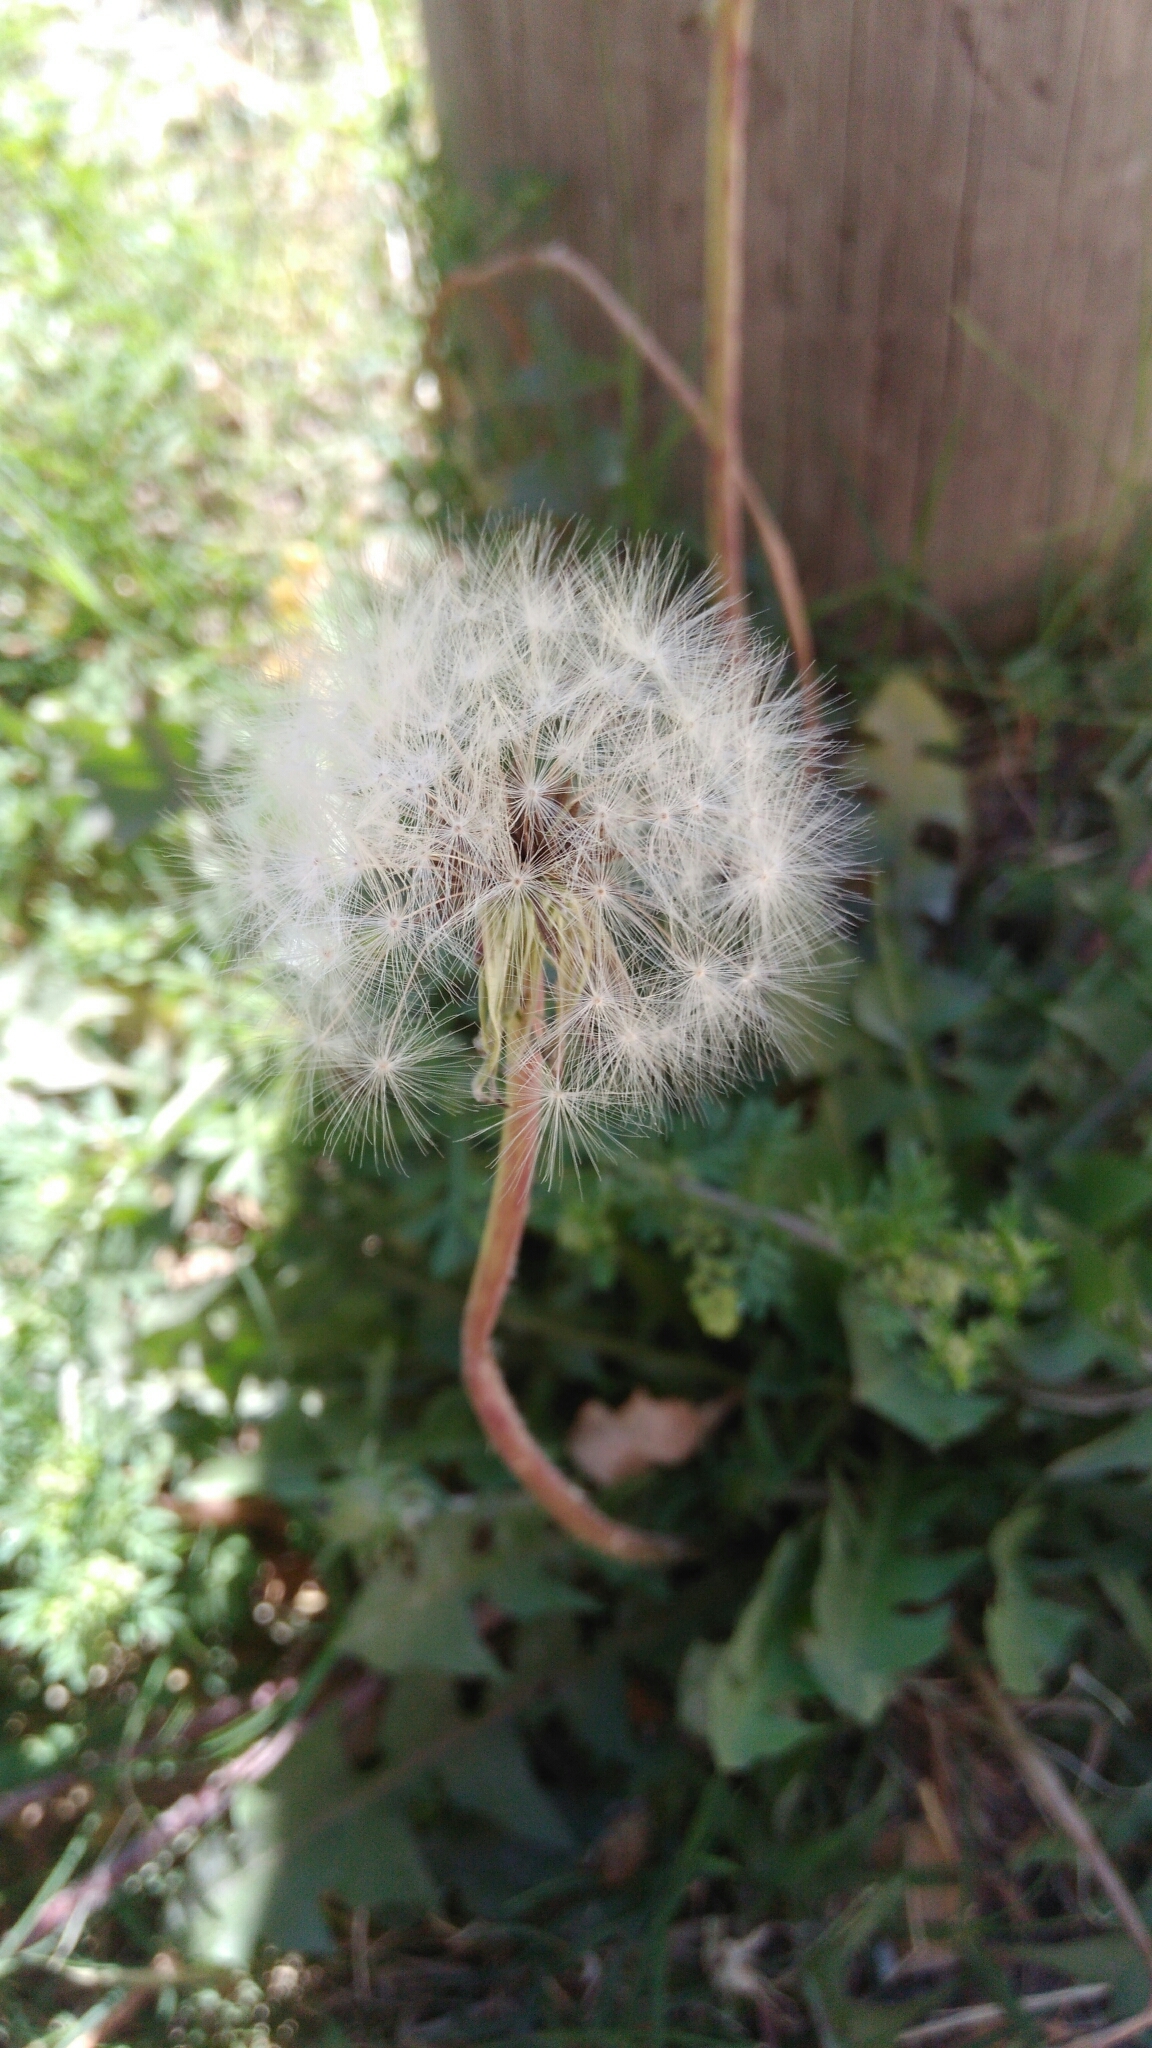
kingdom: Plantae
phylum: Tracheophyta
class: Magnoliopsida
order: Asterales
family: Asteraceae
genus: Taraxacum
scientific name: Taraxacum officinale
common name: Common dandelion
